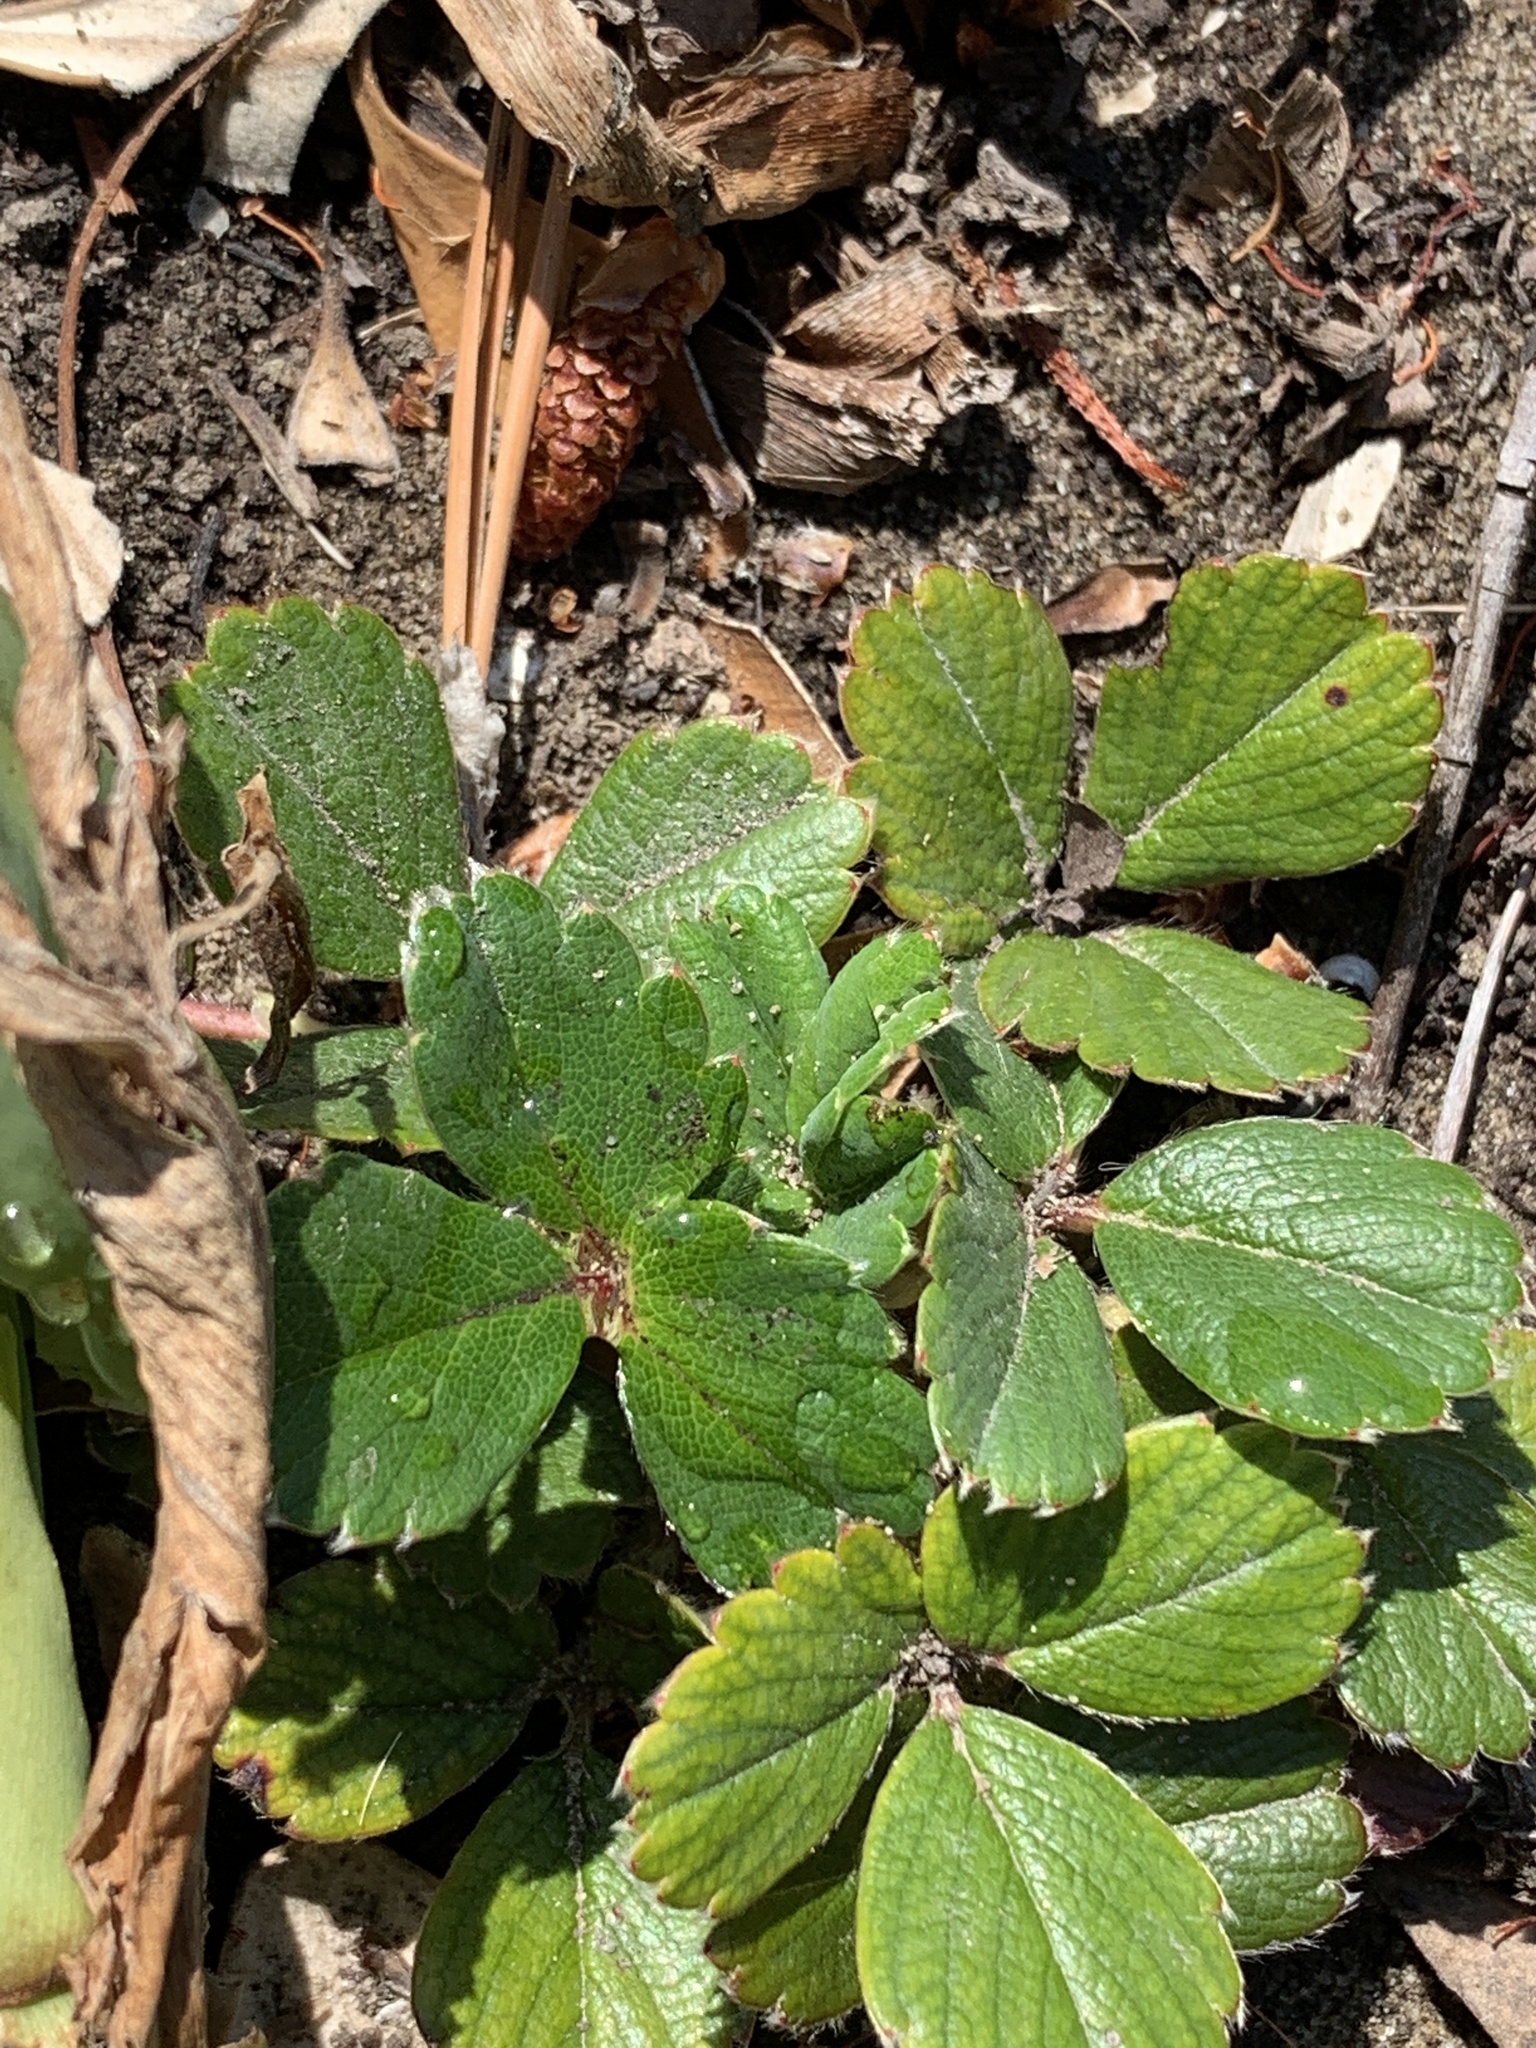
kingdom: Plantae
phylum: Tracheophyta
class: Magnoliopsida
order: Rosales
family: Rosaceae
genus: Fragaria
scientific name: Fragaria chiloensis
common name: Beach strawberry
